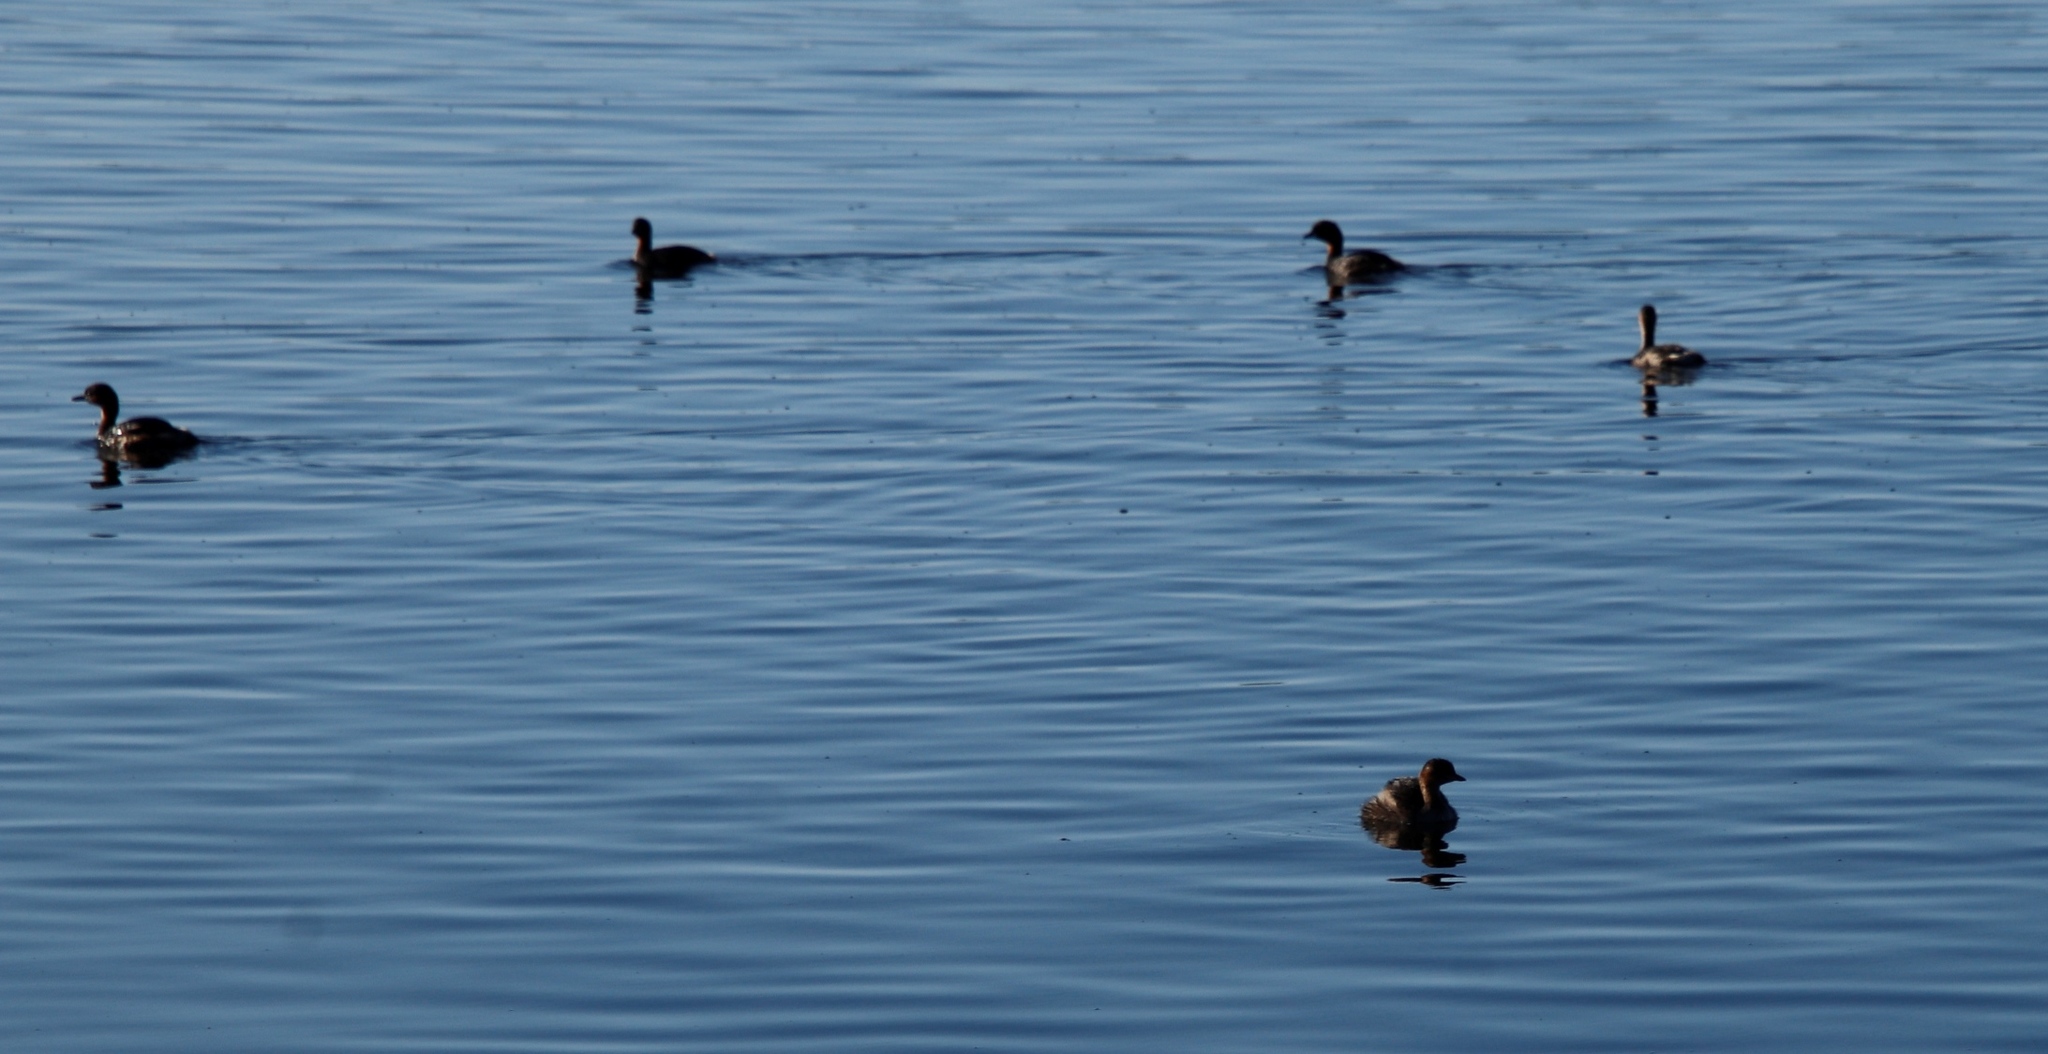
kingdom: Animalia
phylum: Chordata
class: Aves
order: Podicipediformes
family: Podicipedidae
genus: Tachybaptus
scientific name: Tachybaptus ruficollis
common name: Little grebe
